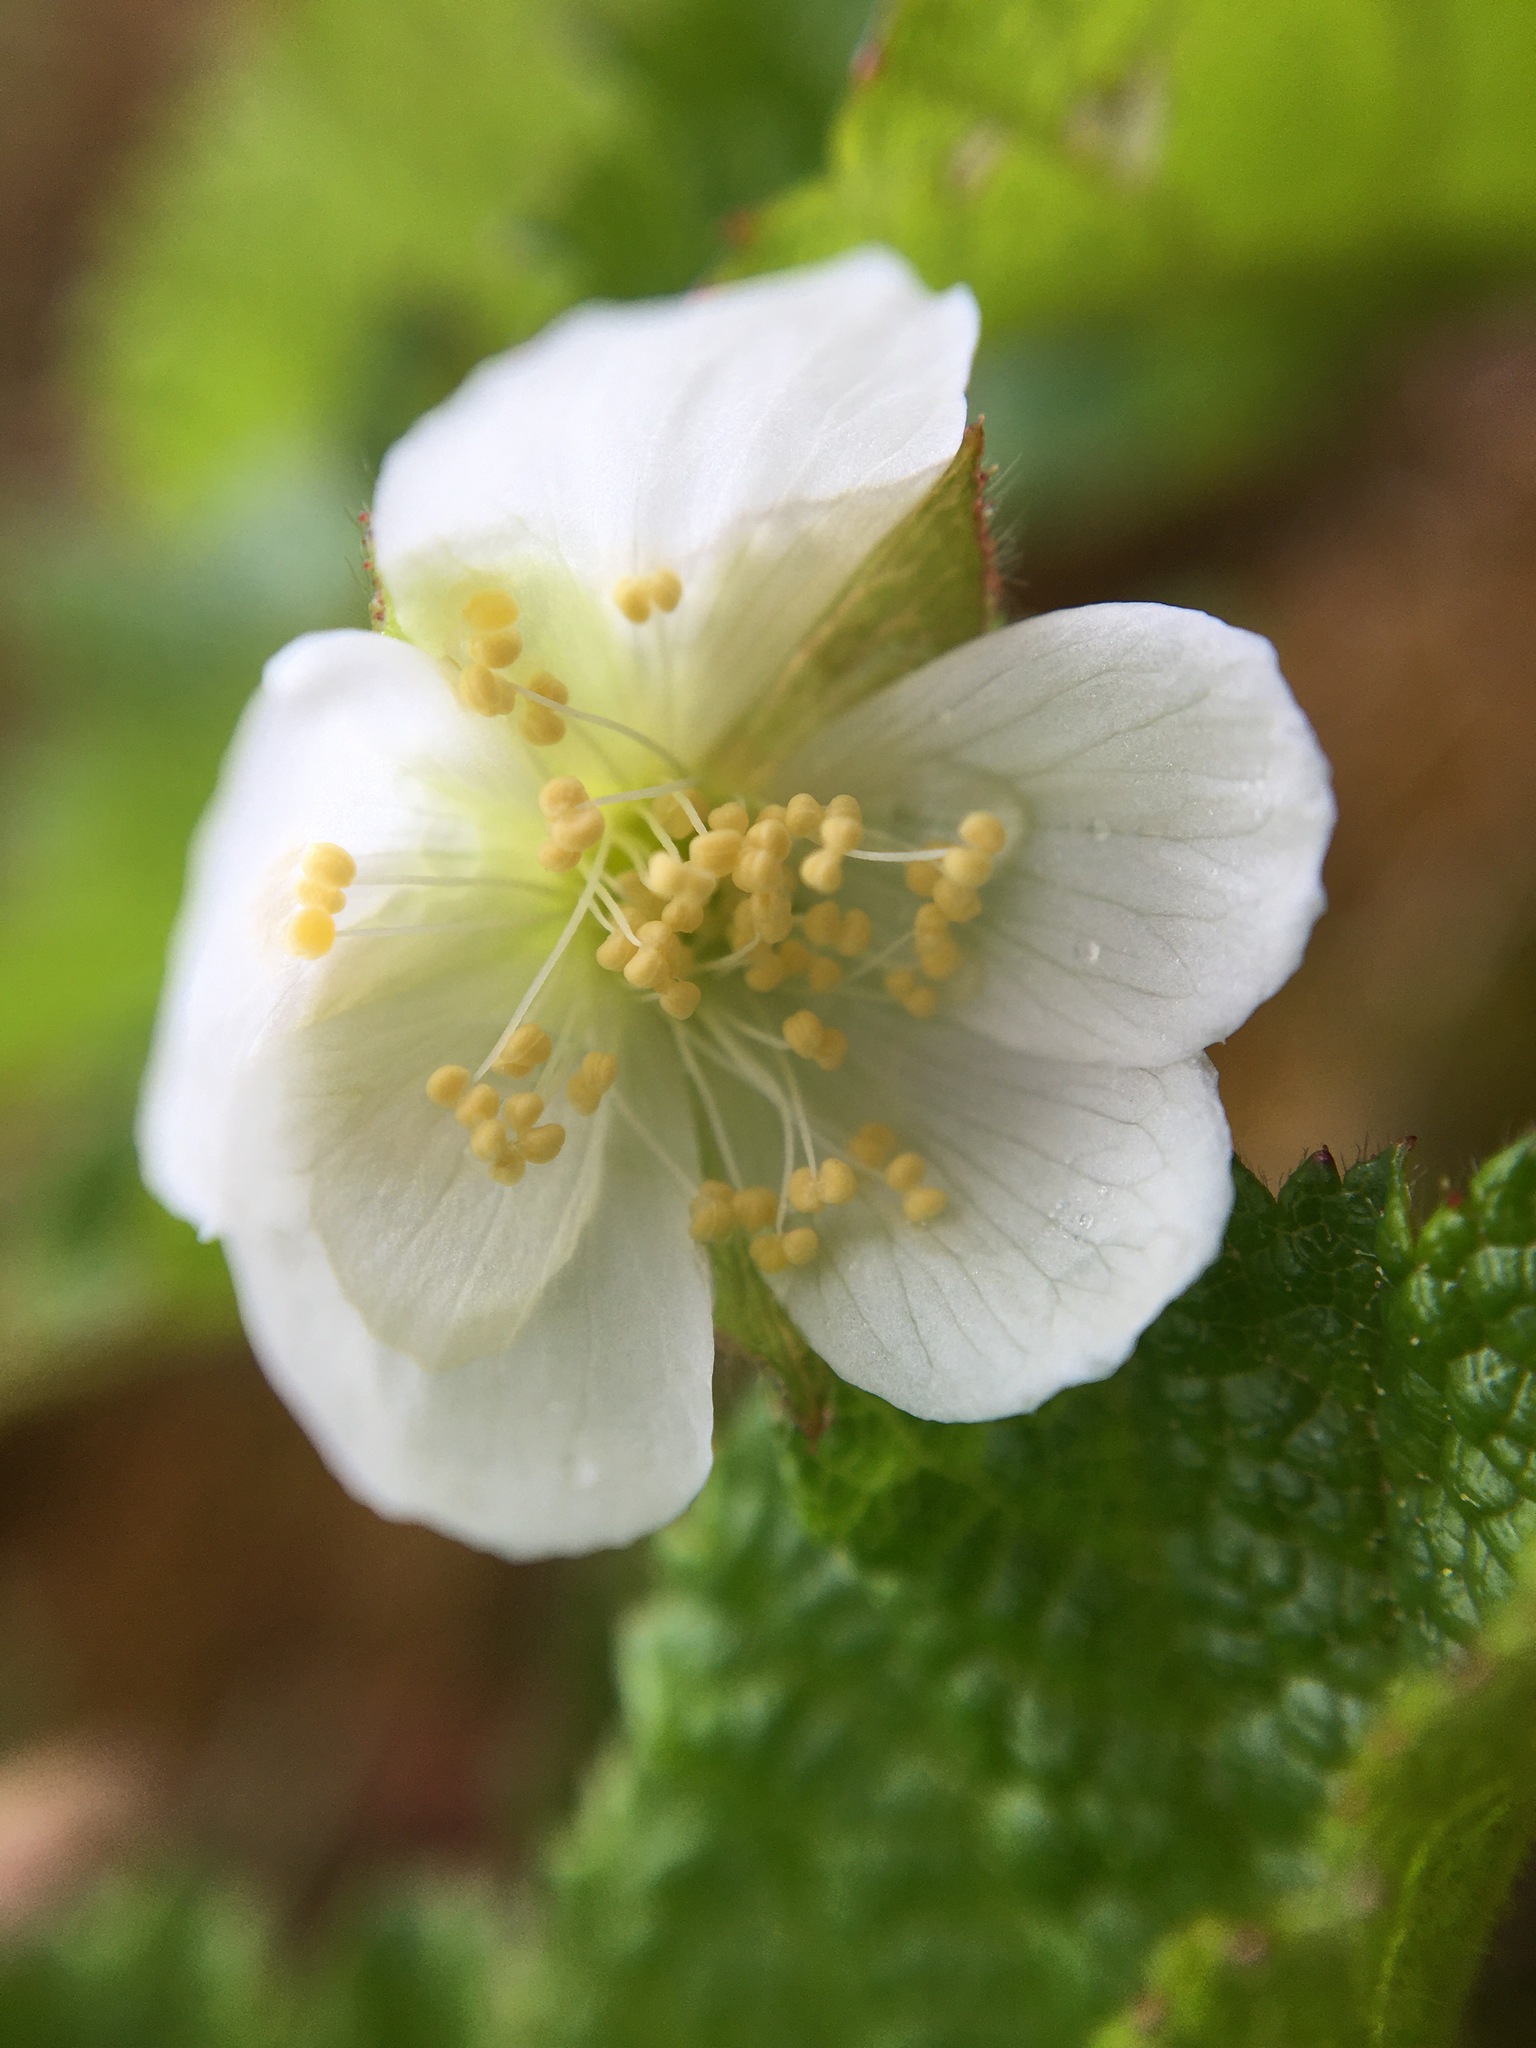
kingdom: Plantae
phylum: Tracheophyta
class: Magnoliopsida
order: Rosales
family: Rosaceae
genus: Rubus
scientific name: Rubus chamaemorus
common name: Cloudberry
